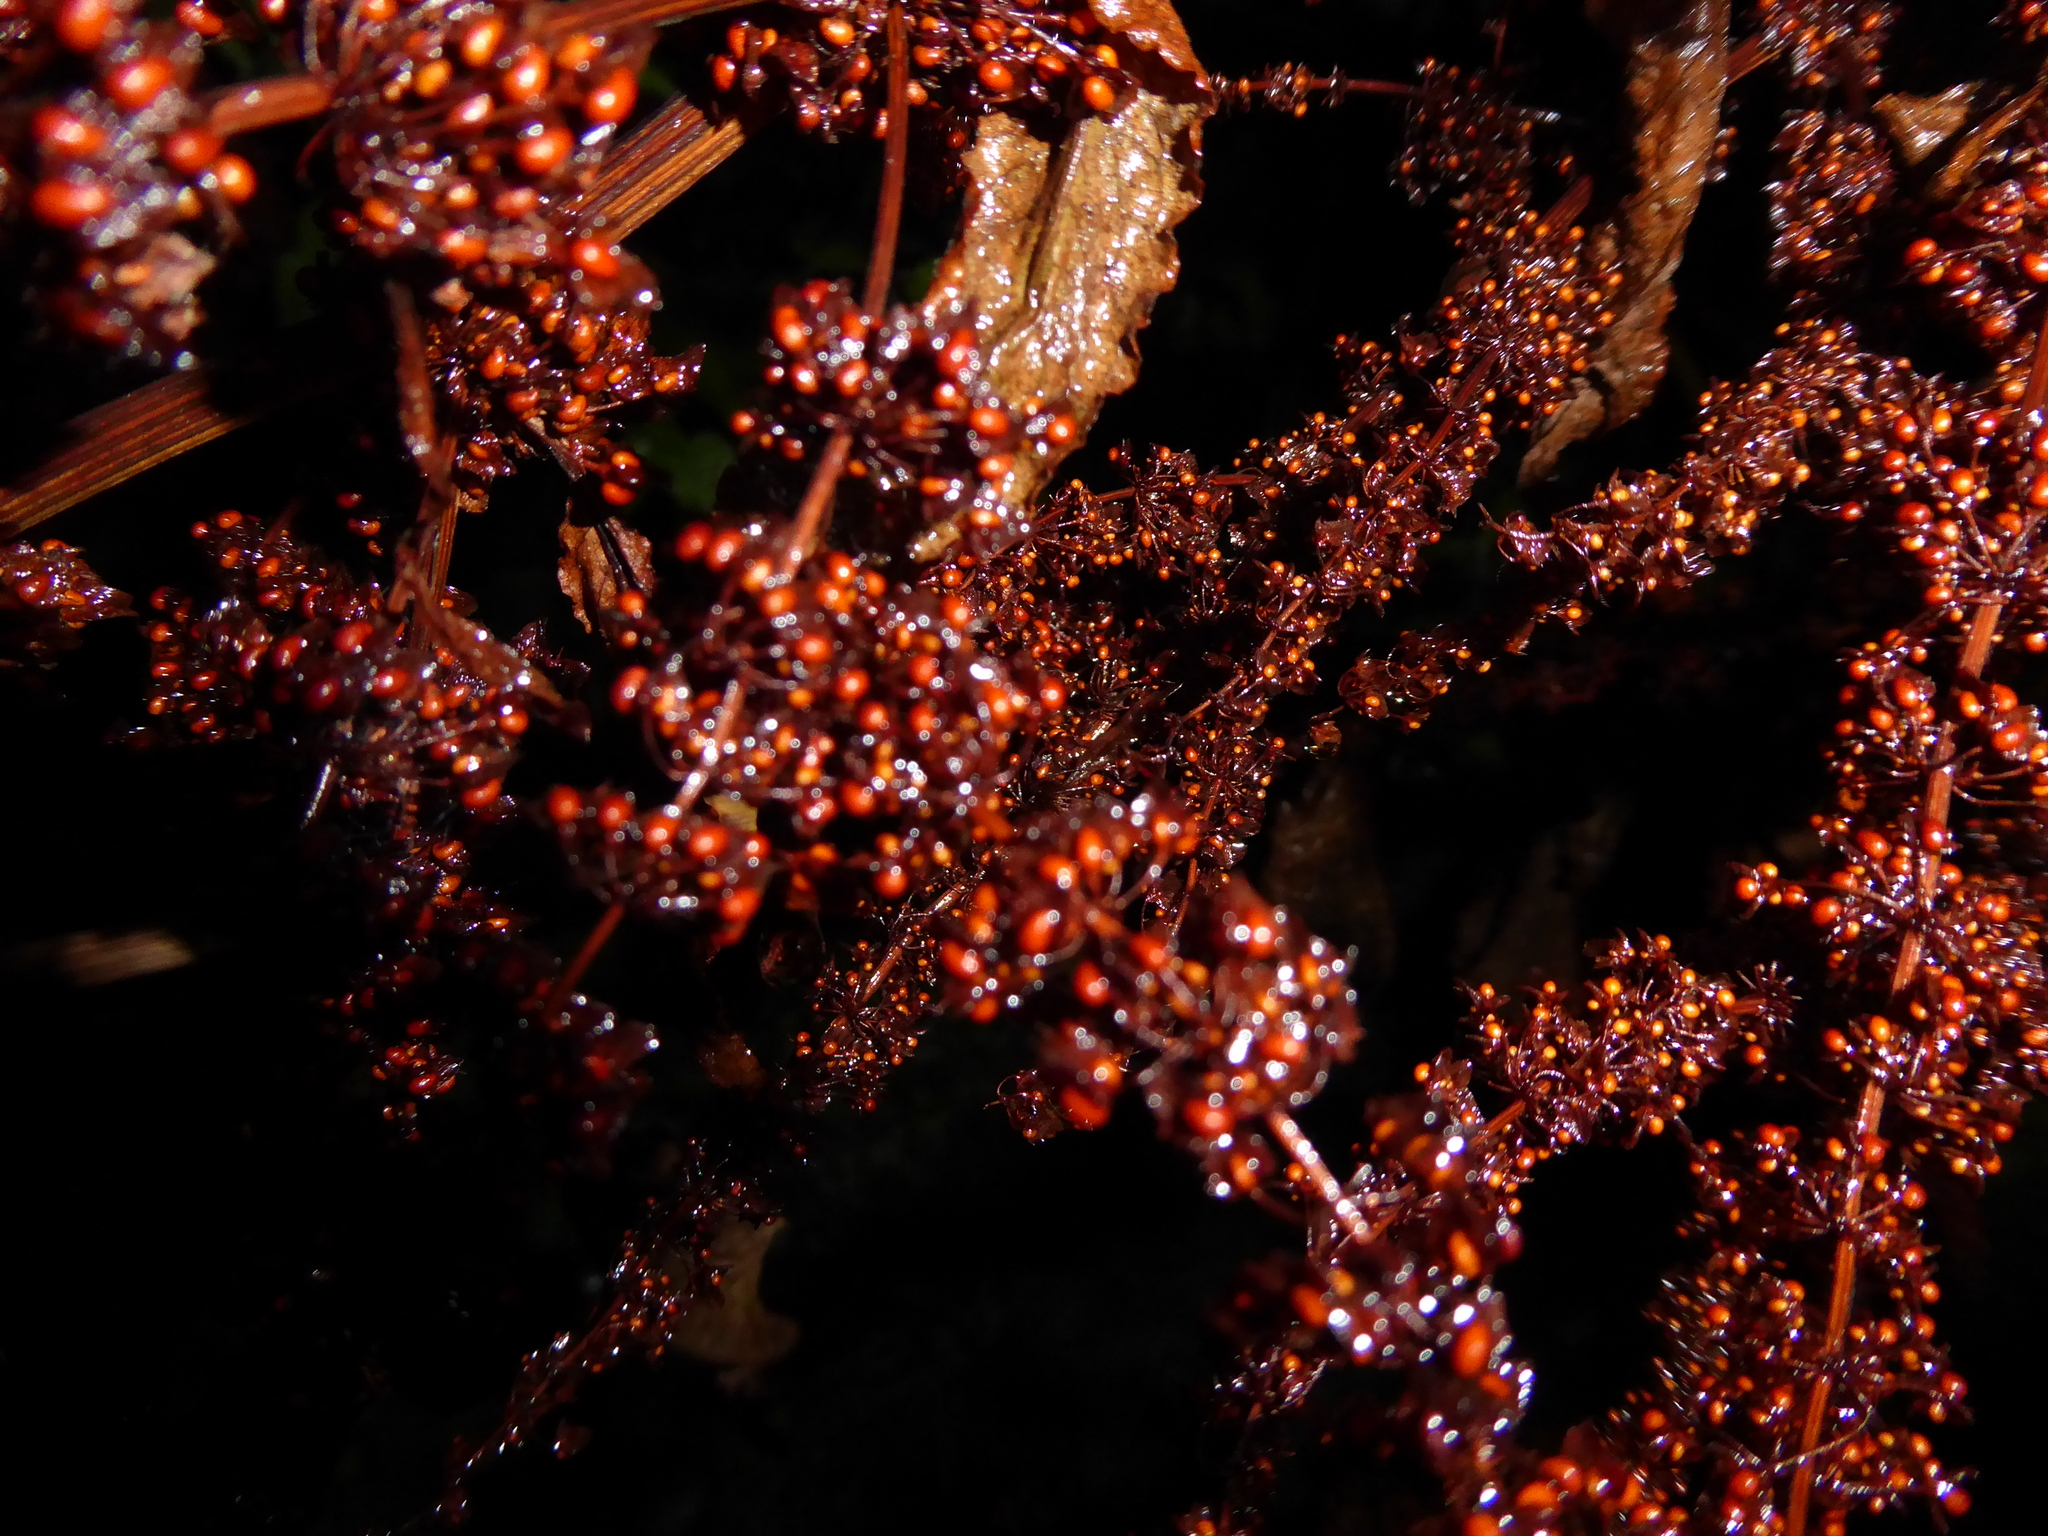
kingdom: Plantae
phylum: Tracheophyta
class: Magnoliopsida
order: Caryophyllales
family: Polygonaceae
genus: Rumex
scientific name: Rumex
